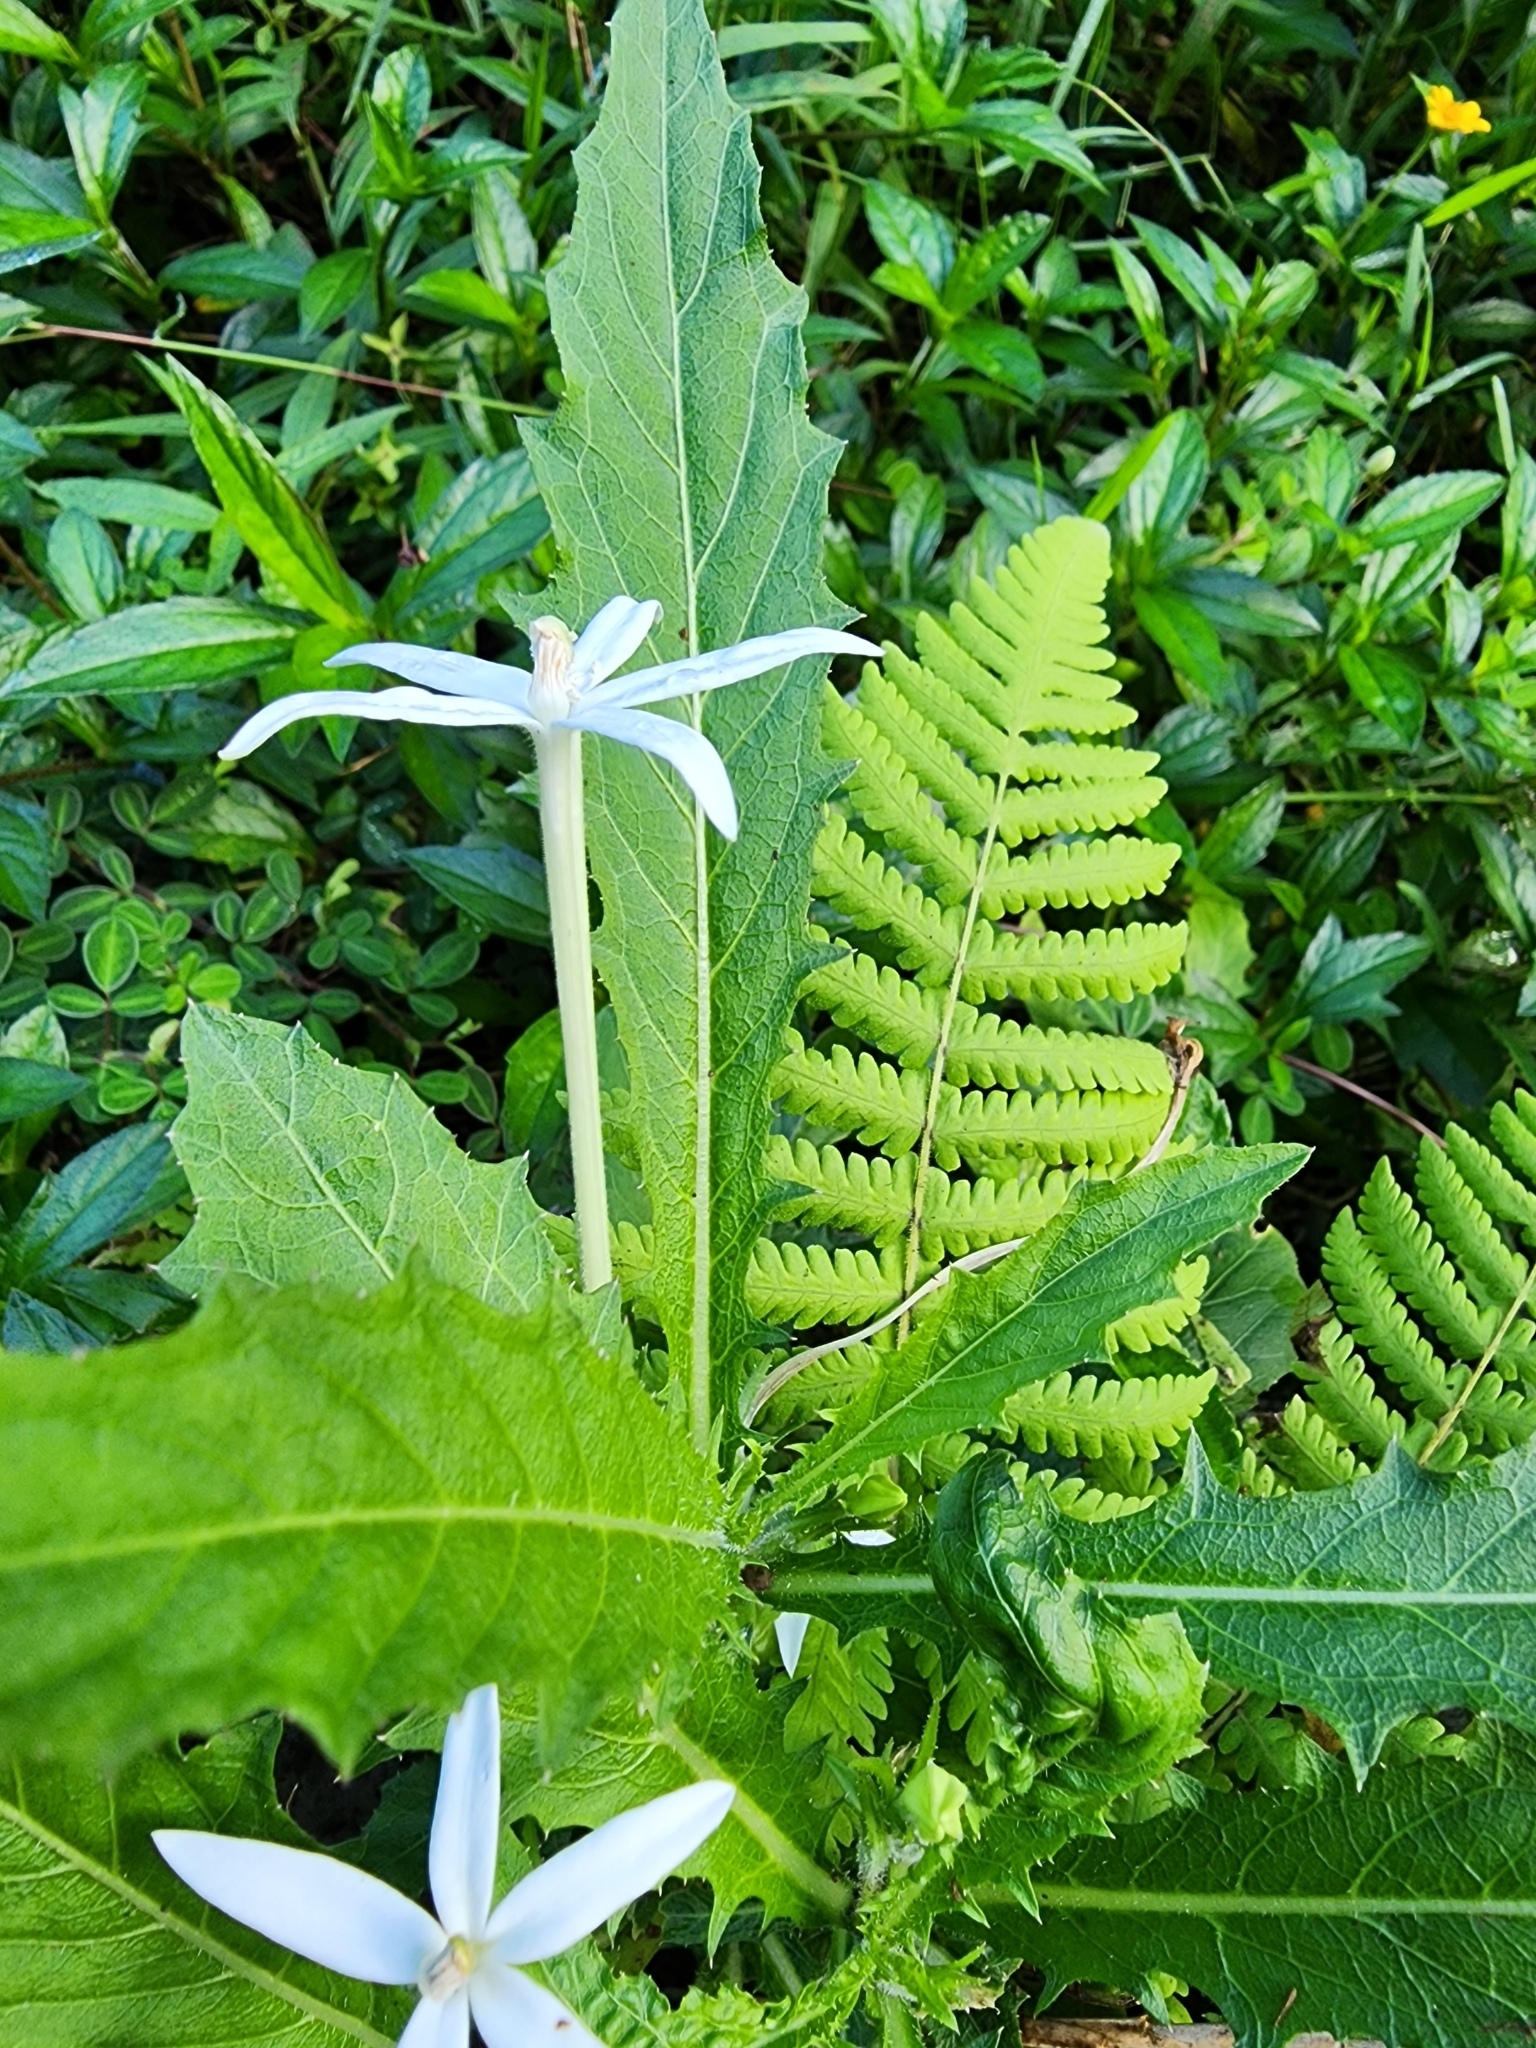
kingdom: Plantae
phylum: Tracheophyta
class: Magnoliopsida
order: Asterales
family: Campanulaceae
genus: Hippobroma
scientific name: Hippobroma longiflora
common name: Madamfate
